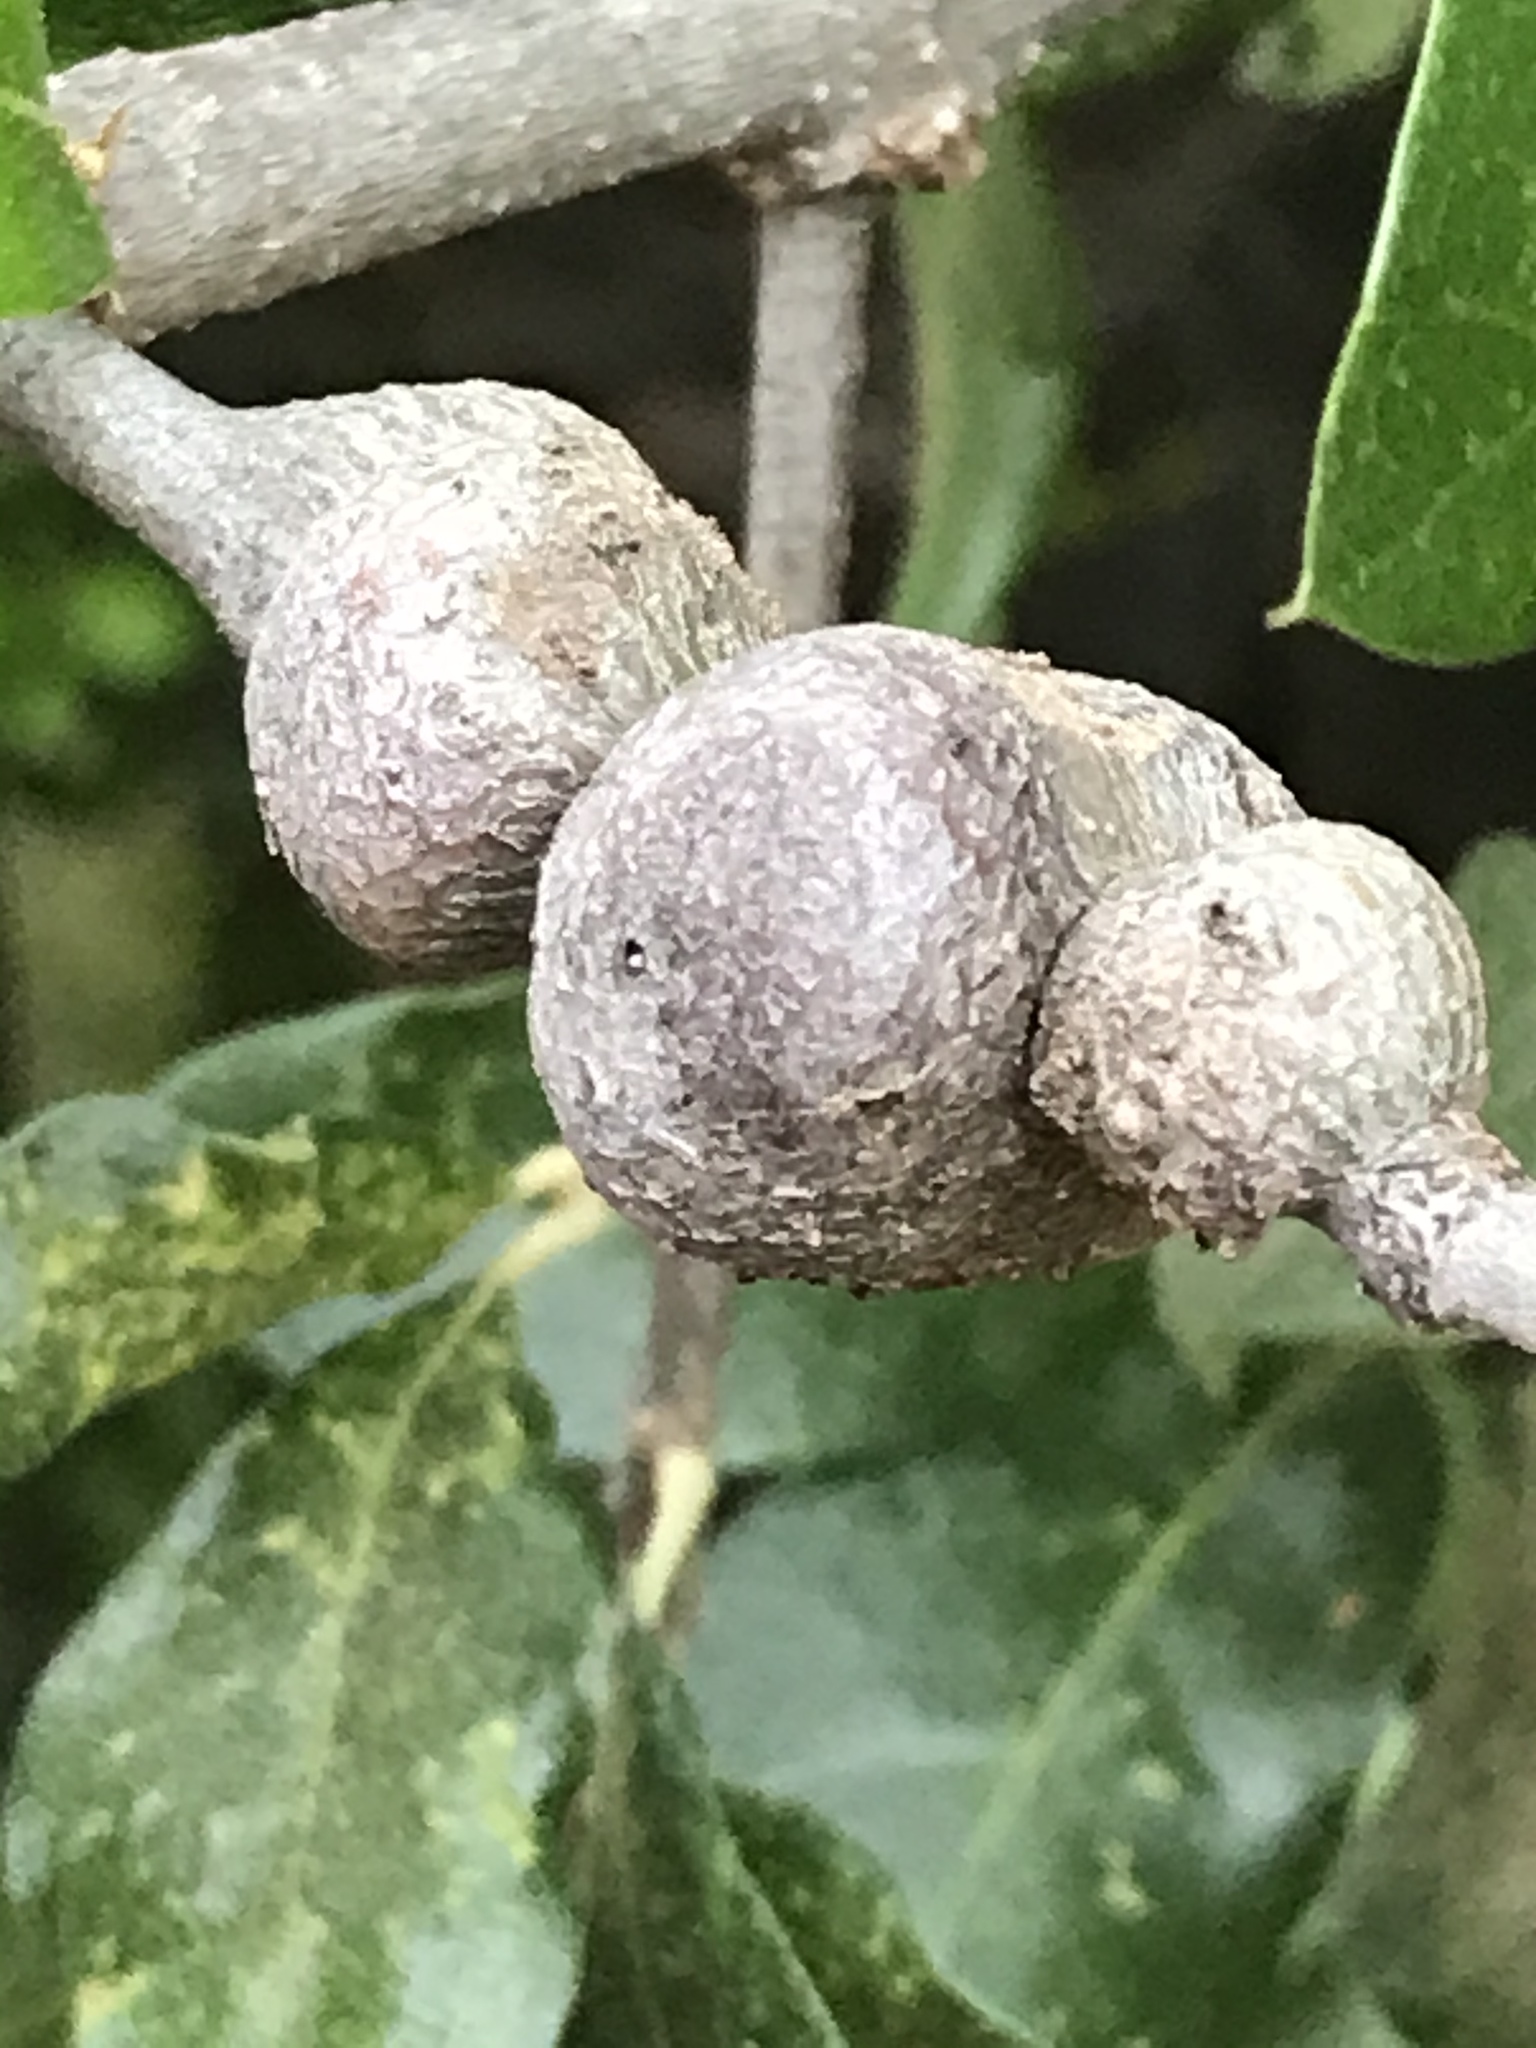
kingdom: Animalia
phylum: Arthropoda
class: Insecta
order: Hymenoptera
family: Cynipidae
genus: Callirhytis
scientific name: Callirhytis
